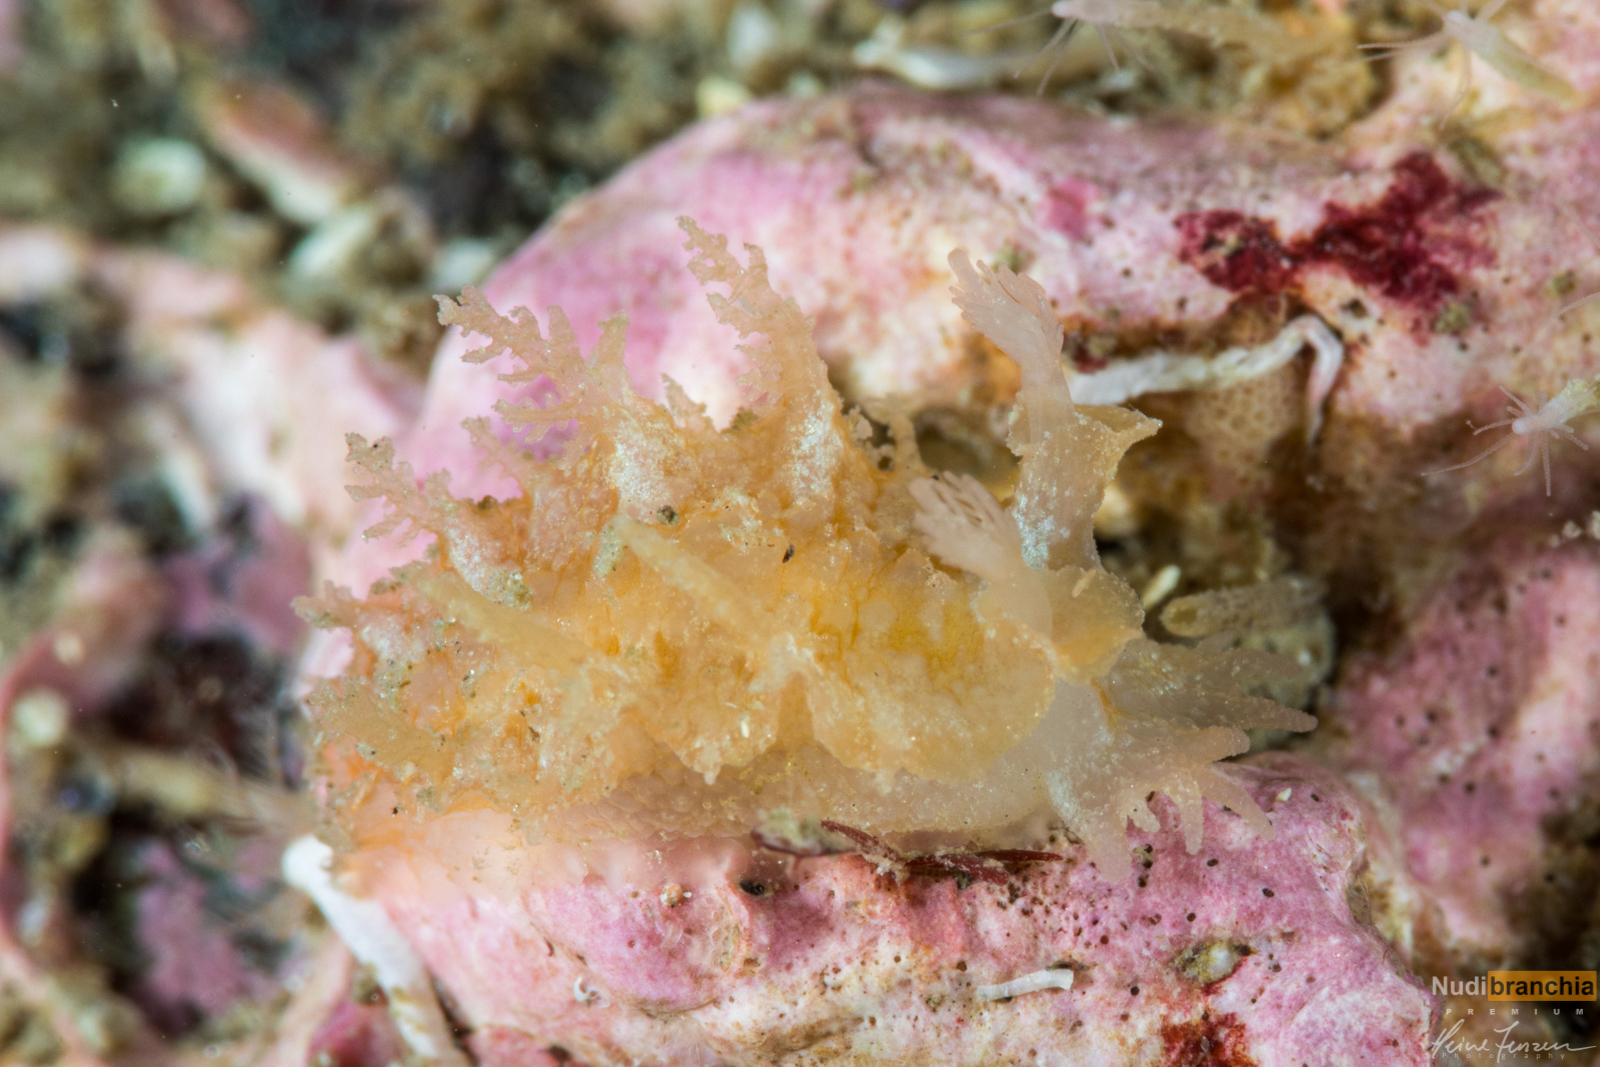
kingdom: Animalia
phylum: Mollusca
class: Gastropoda
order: Nudibranchia
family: Tritoniidae
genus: Duvaucelia
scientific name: Duvaucelia plebeia
